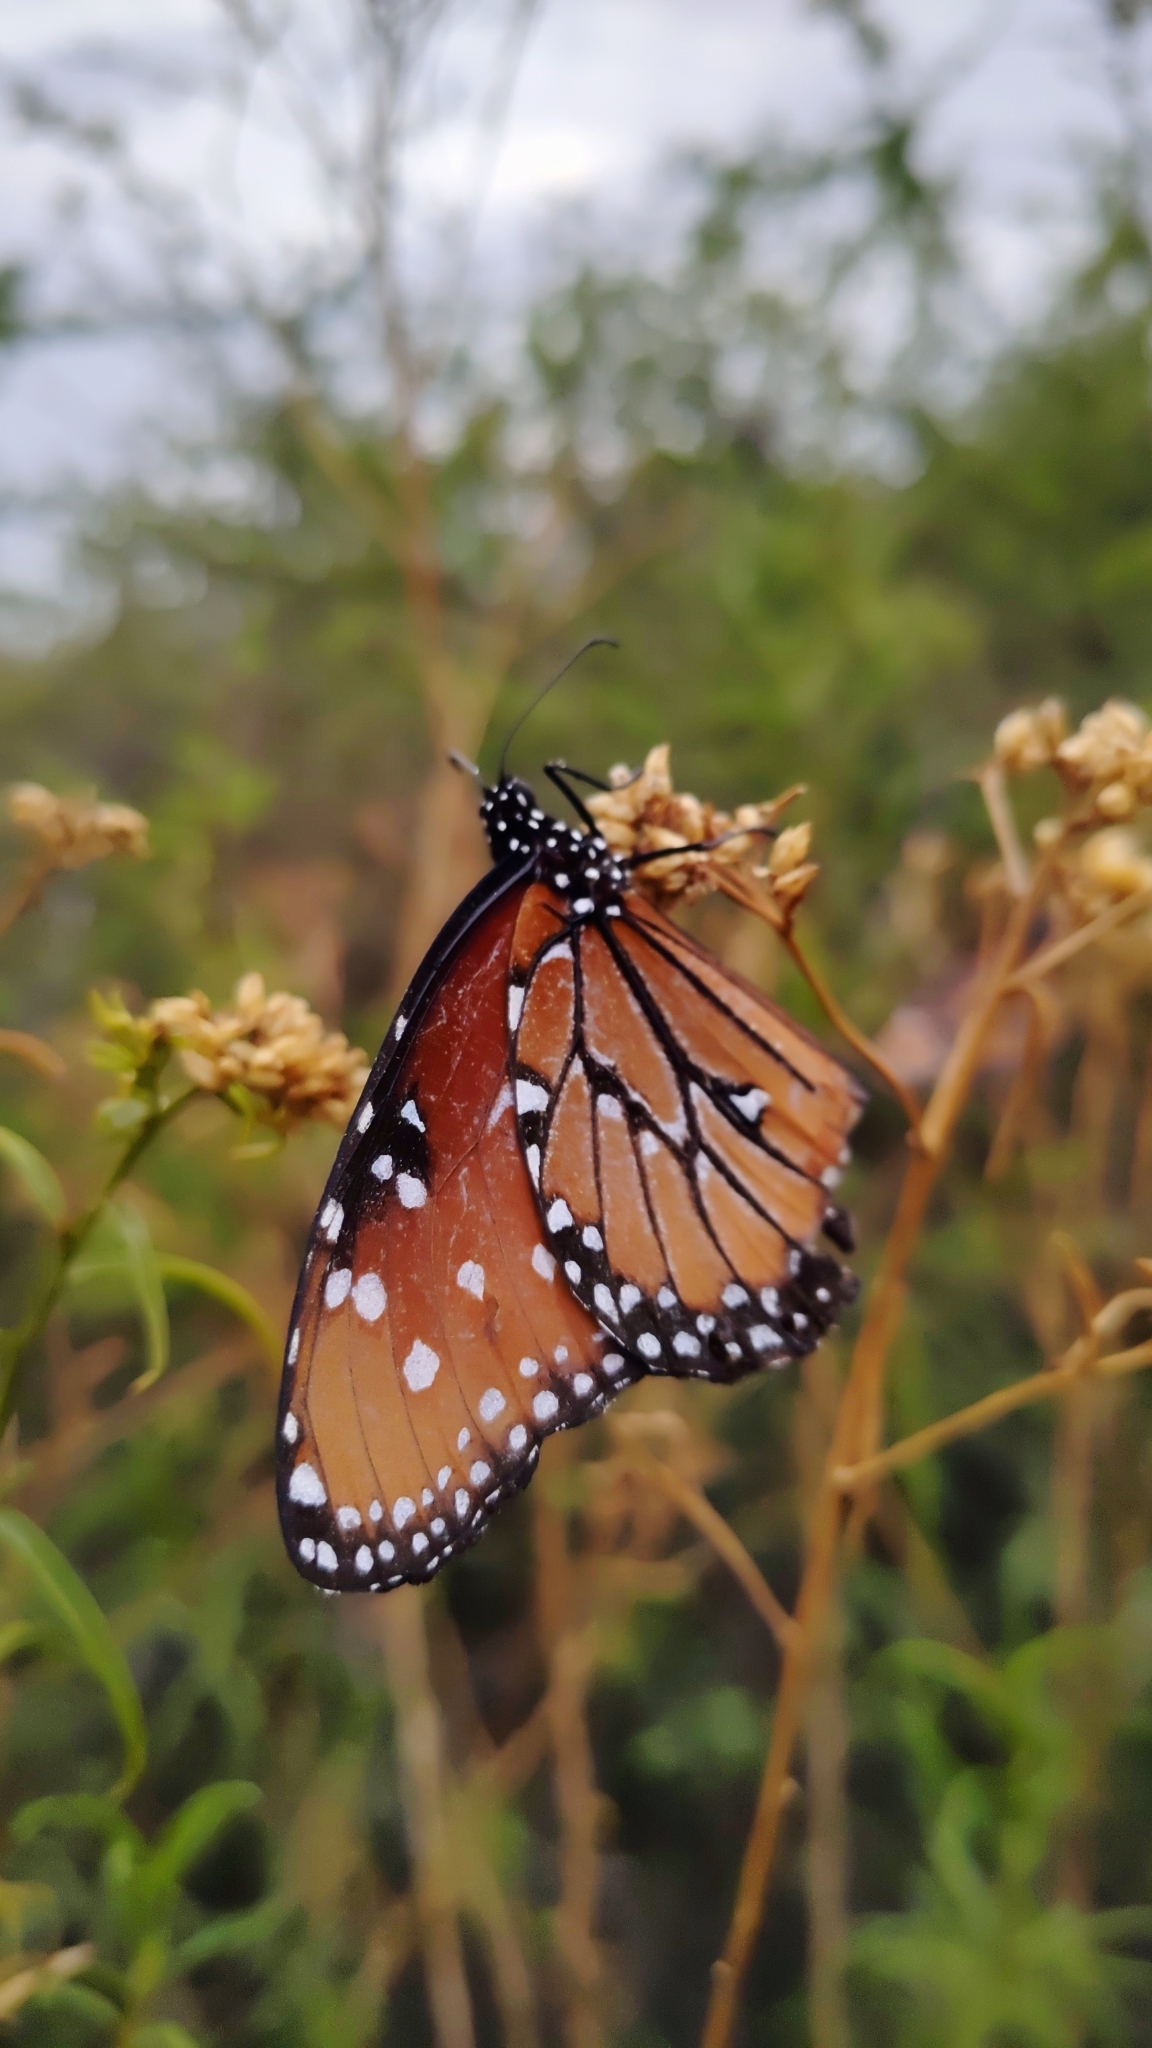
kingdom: Animalia
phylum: Arthropoda
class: Insecta
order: Lepidoptera
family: Nymphalidae
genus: Danaus
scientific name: Danaus gilippus
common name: Queen
